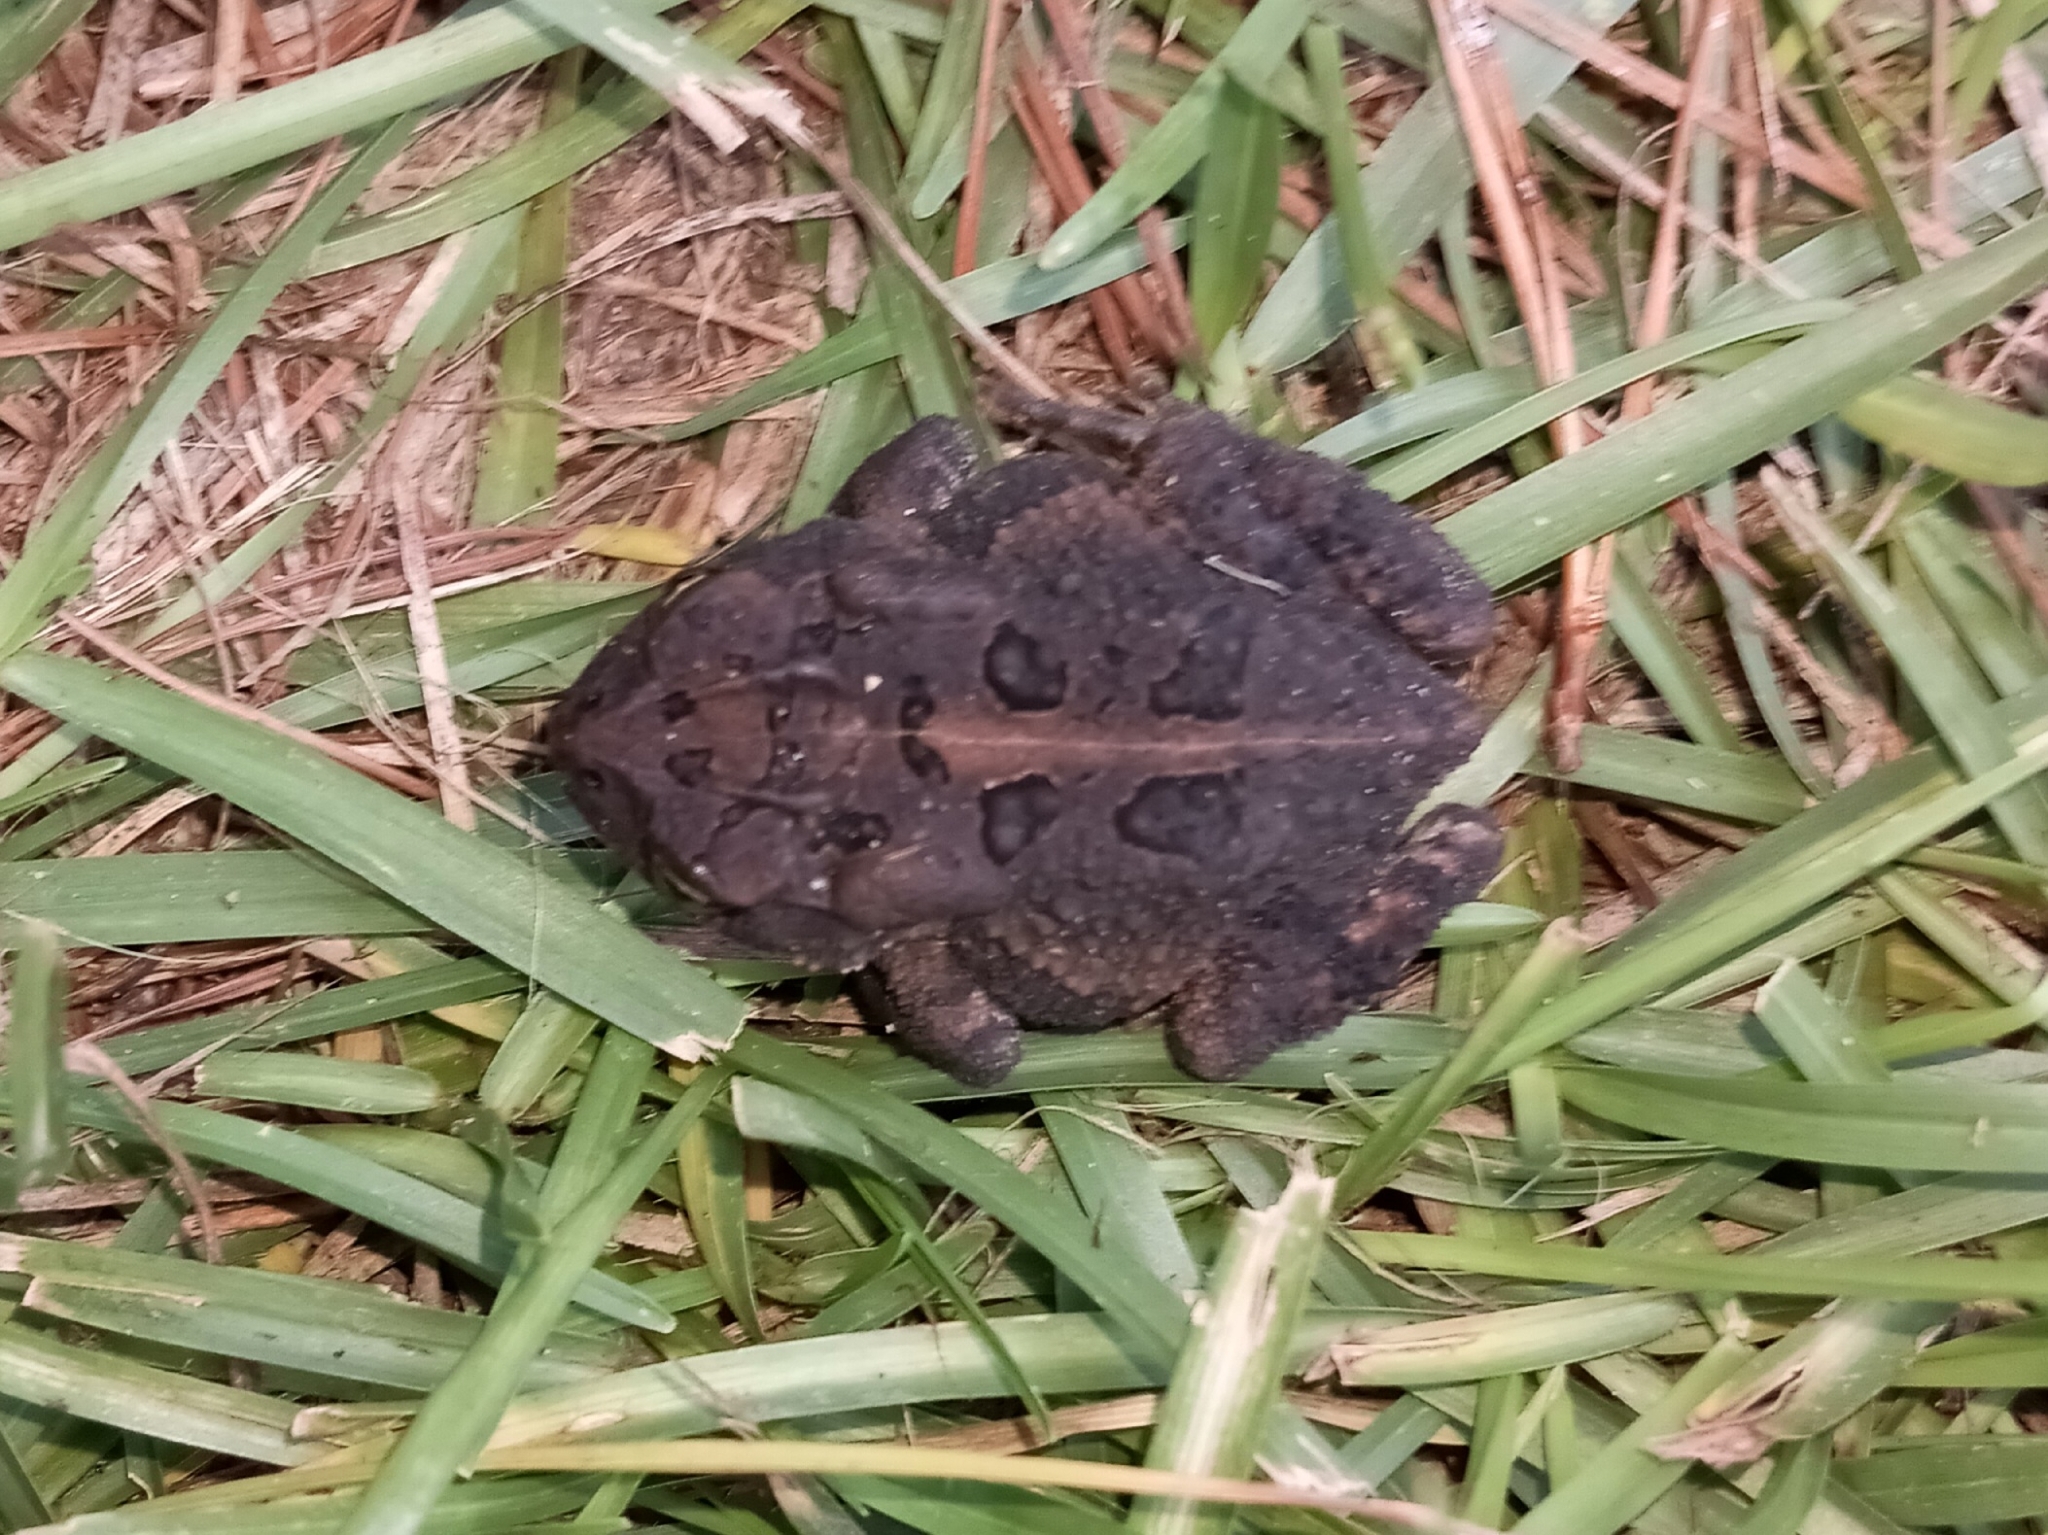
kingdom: Animalia
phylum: Chordata
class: Amphibia
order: Anura
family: Bufonidae
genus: Anaxyrus
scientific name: Anaxyrus terrestris
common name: Southern toad
